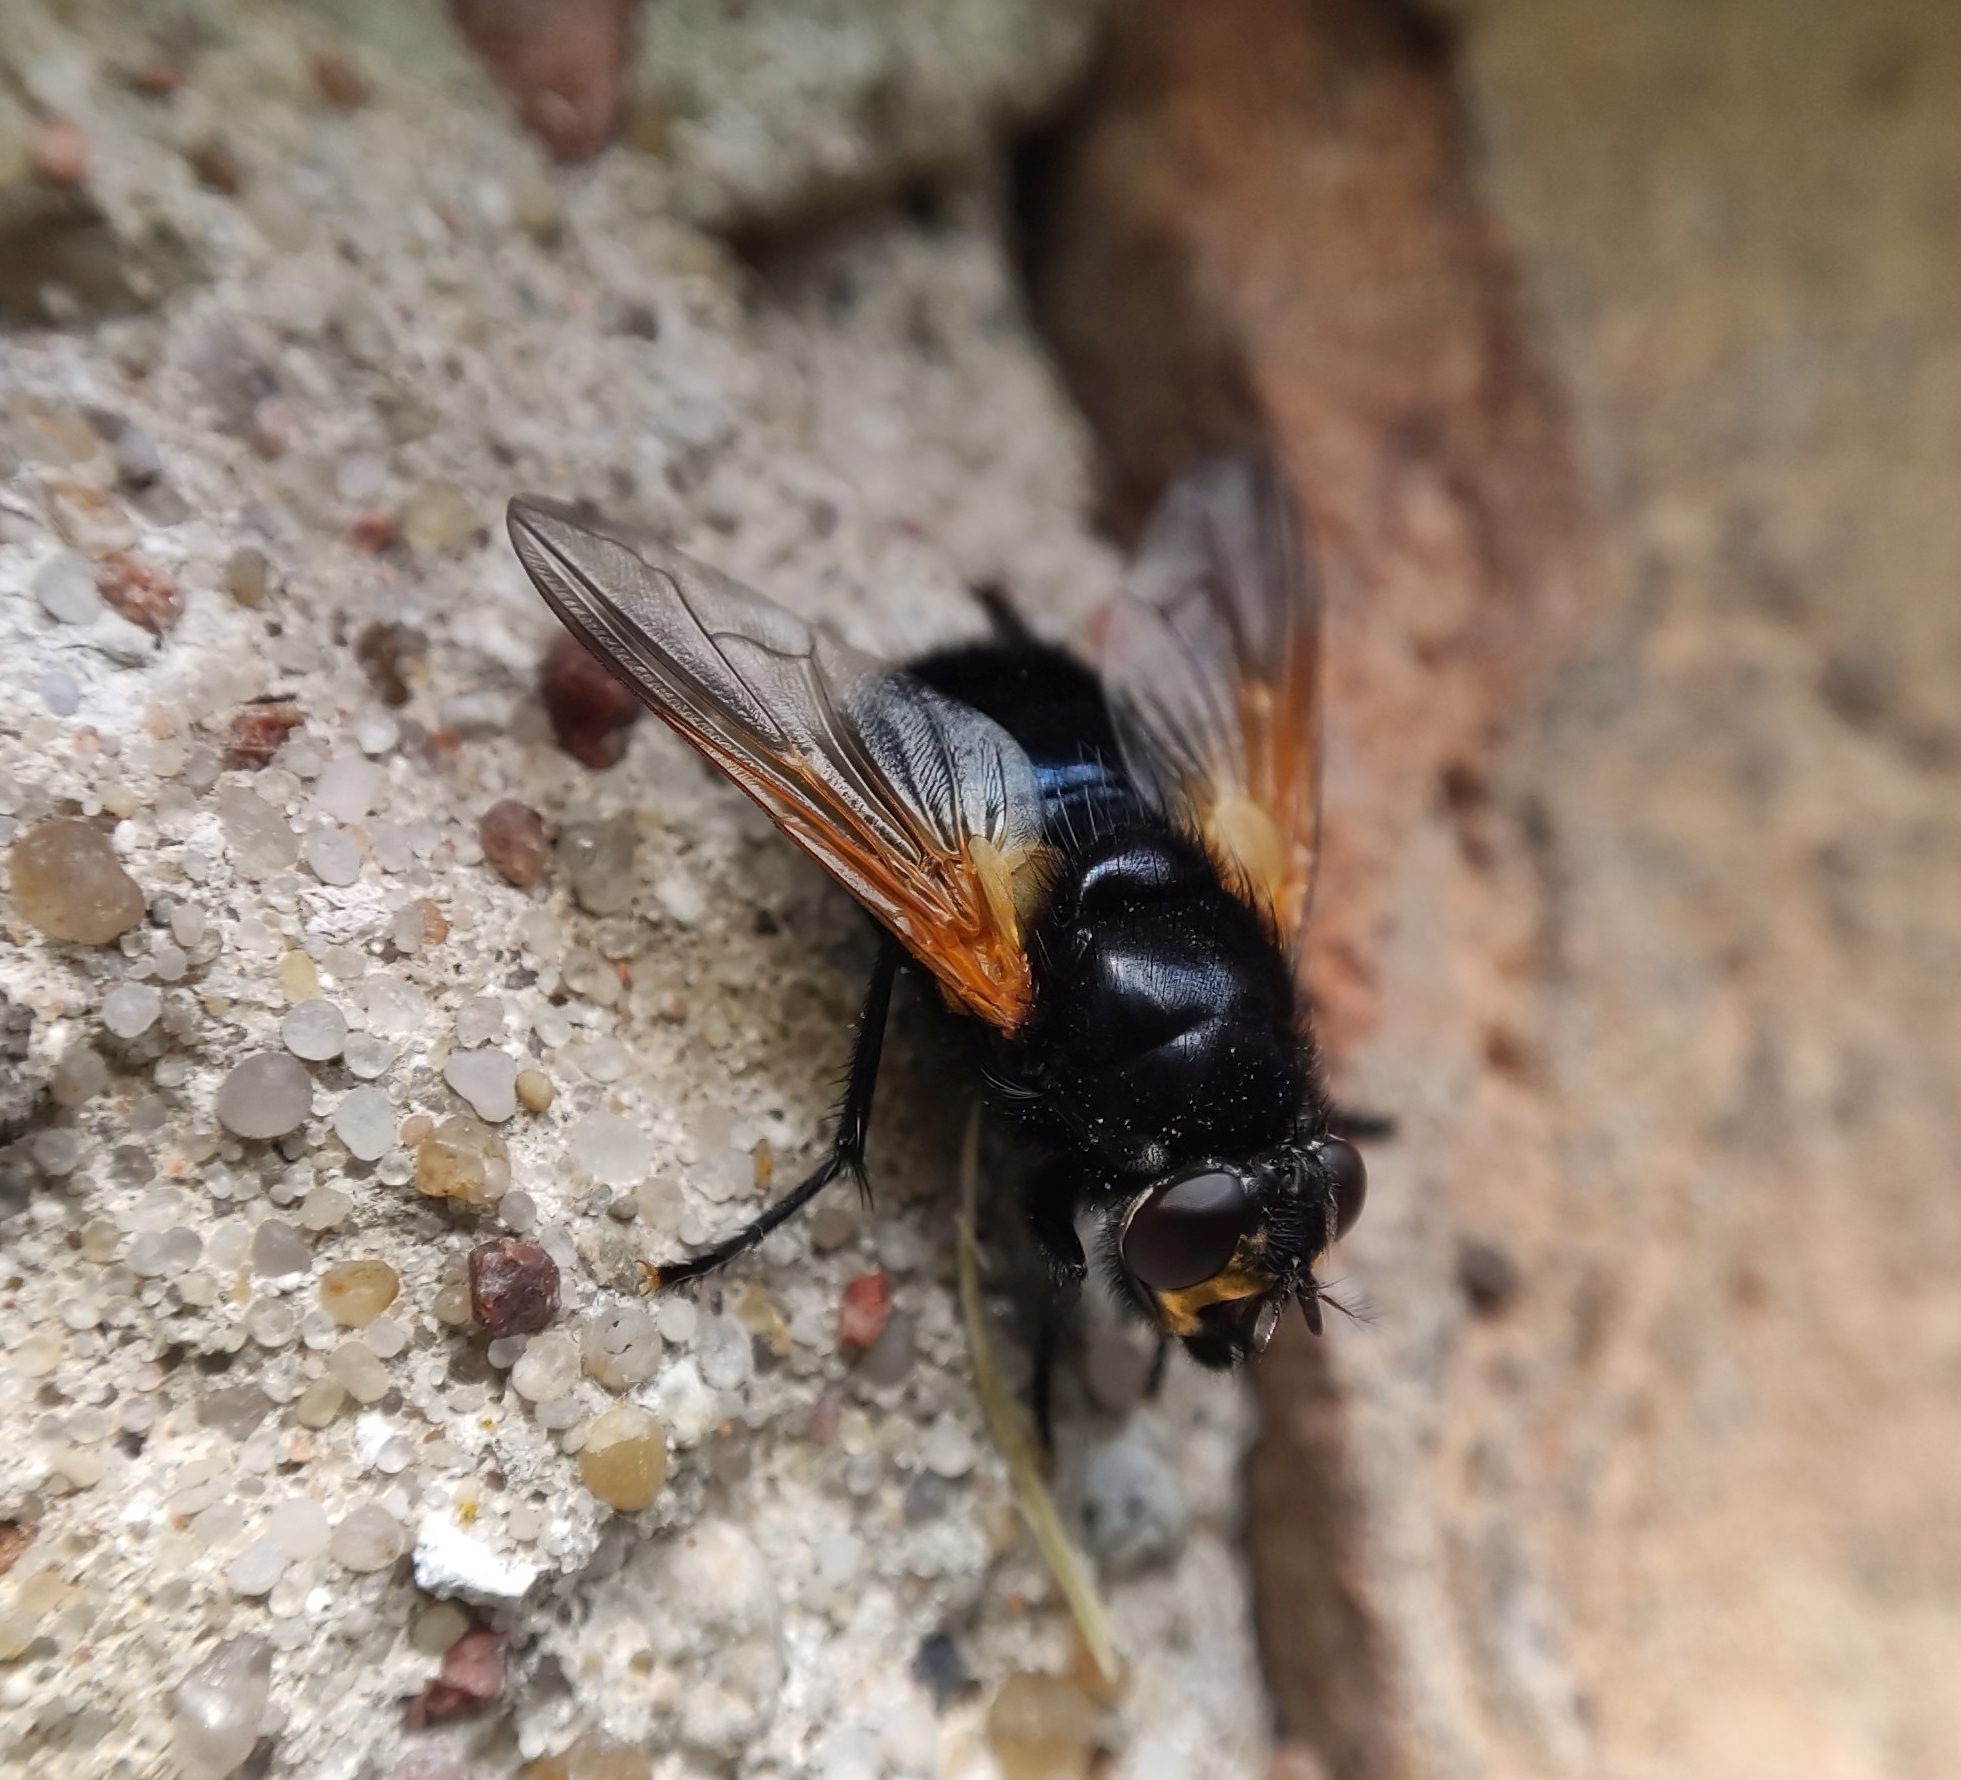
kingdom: Animalia
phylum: Arthropoda
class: Insecta
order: Diptera
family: Muscidae
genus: Mesembrina
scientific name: Mesembrina meridiana
